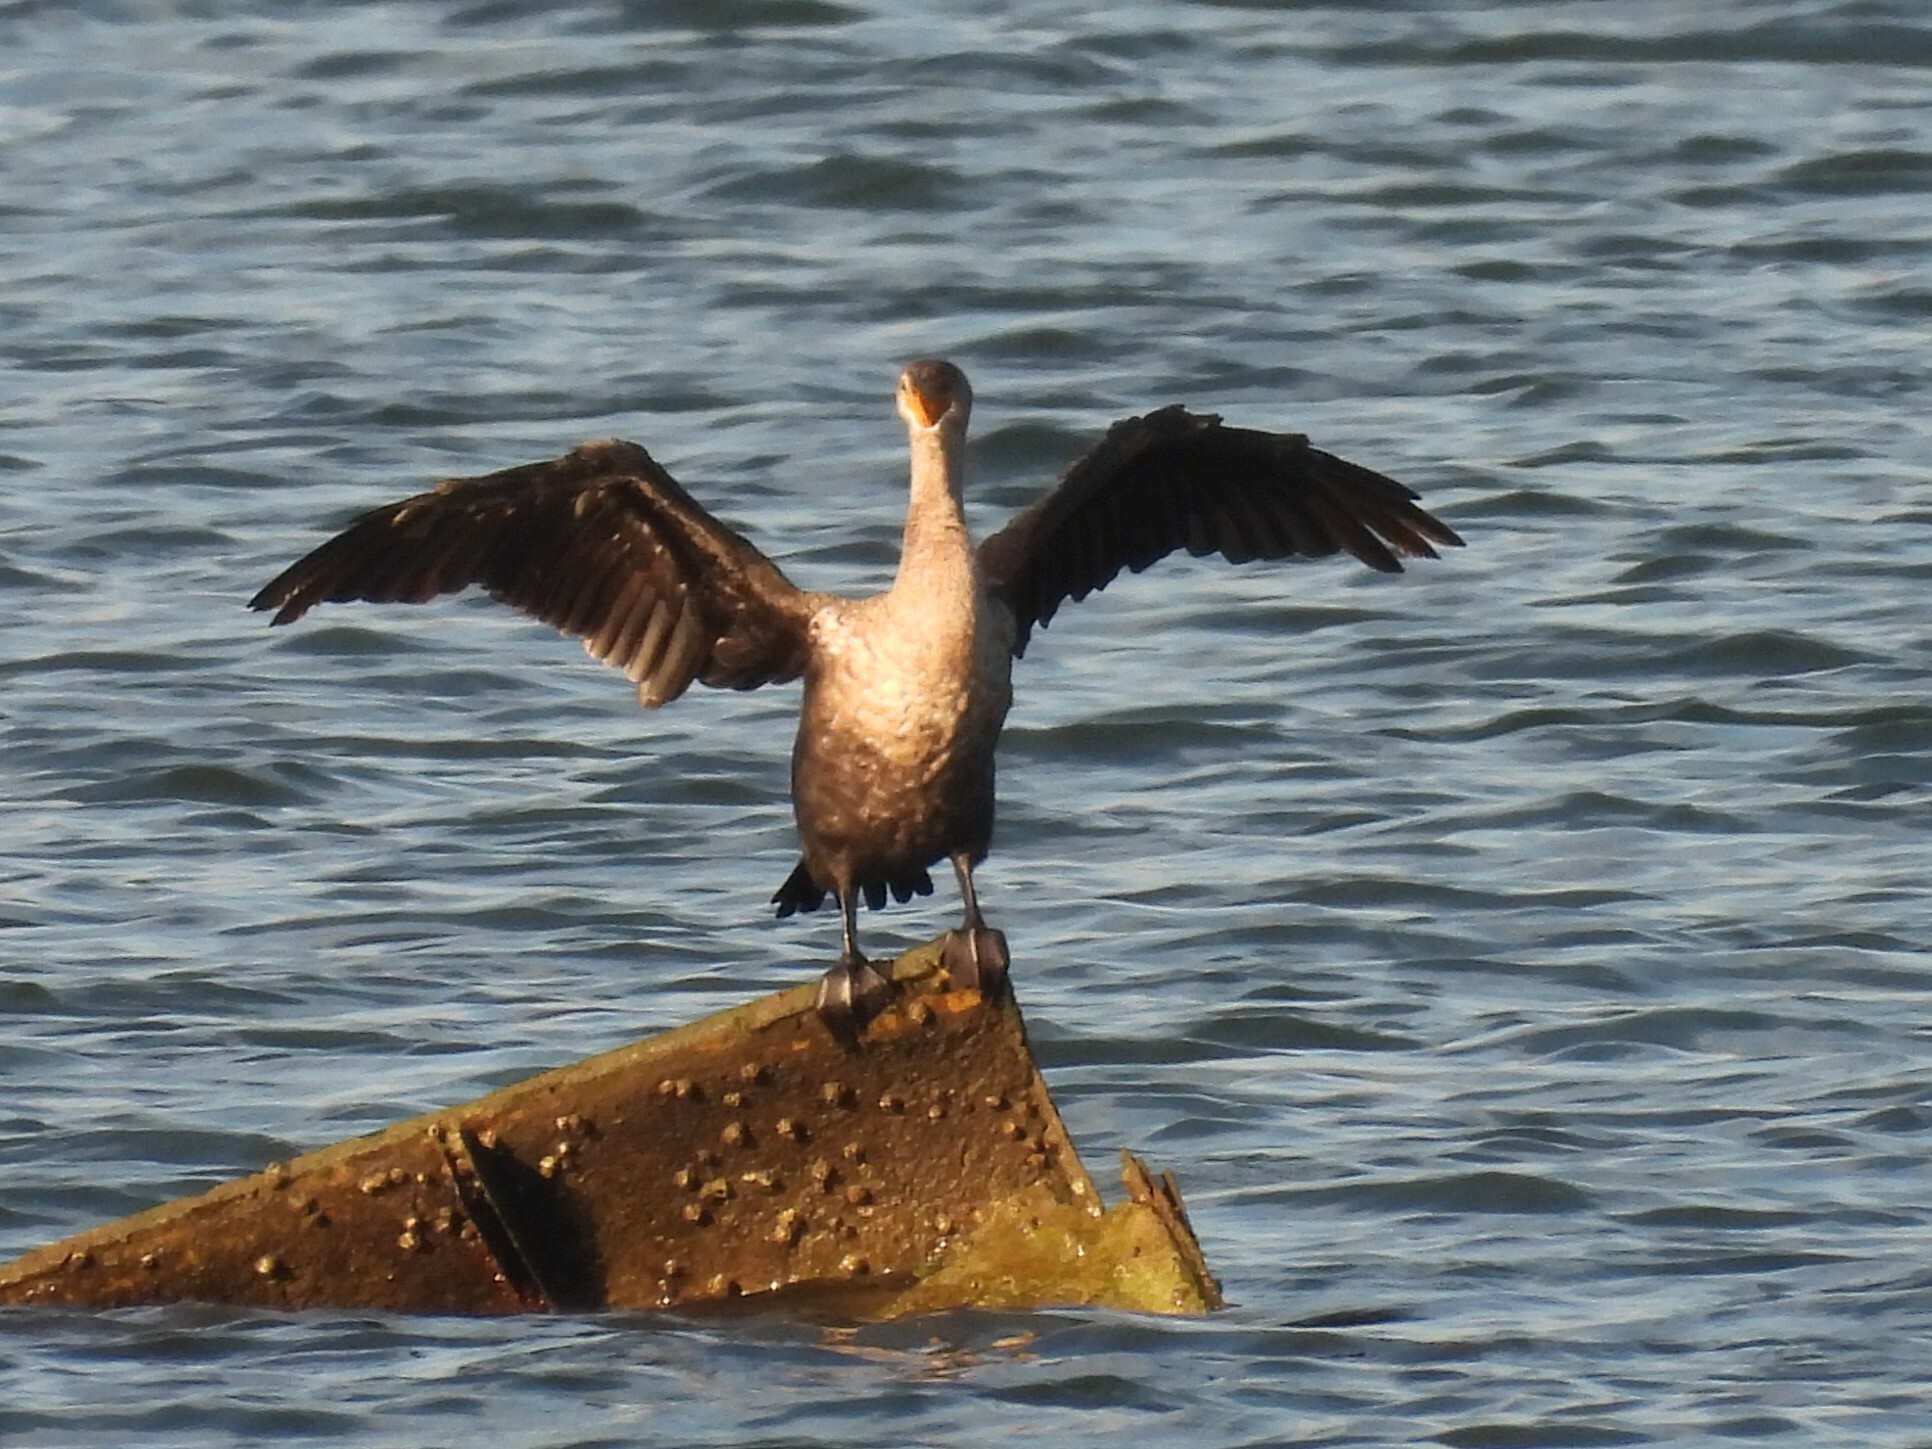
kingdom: Animalia
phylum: Chordata
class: Aves
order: Suliformes
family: Phalacrocoracidae
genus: Phalacrocorax
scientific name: Phalacrocorax auritus
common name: Double-crested cormorant
